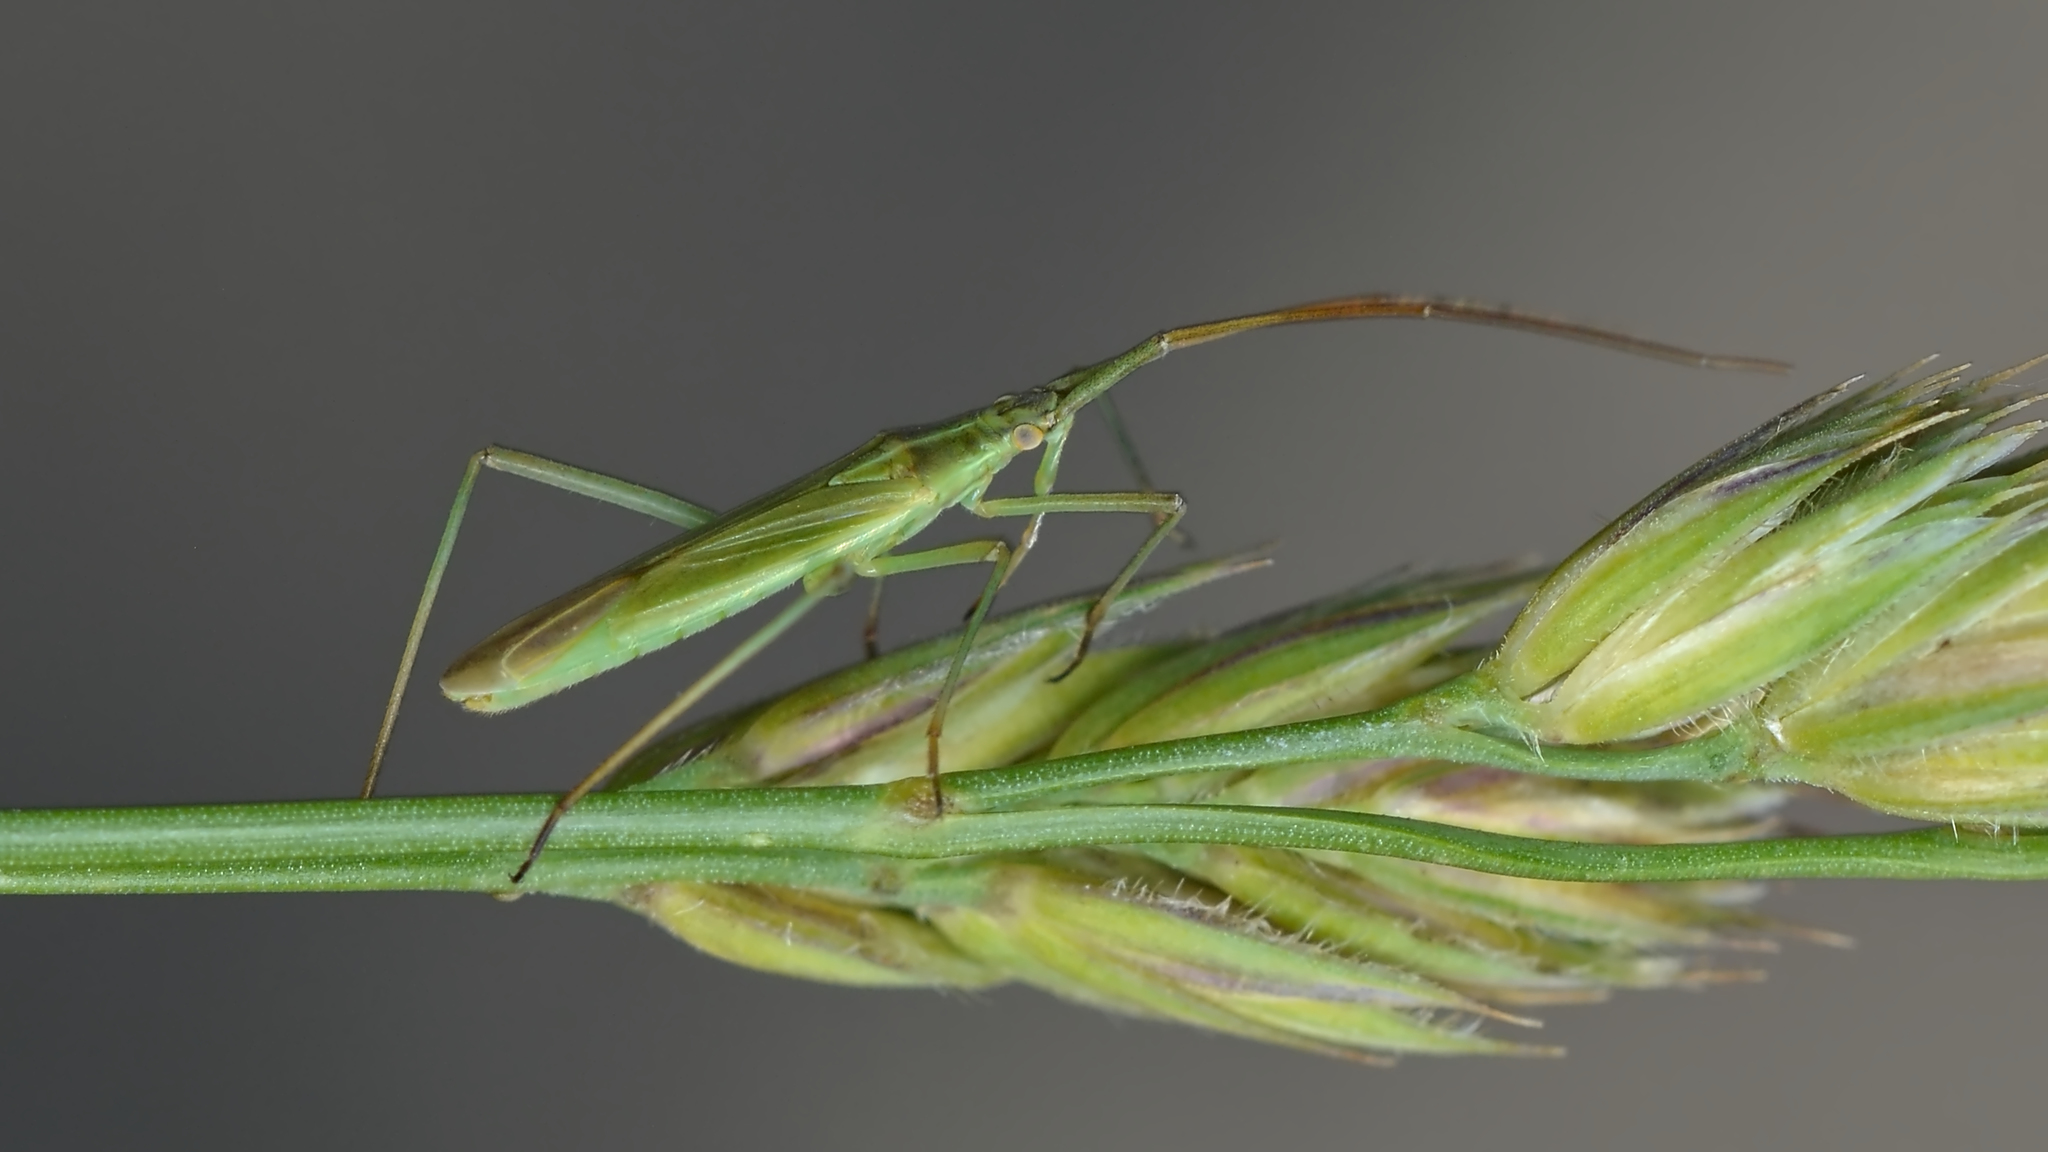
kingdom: Animalia
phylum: Arthropoda
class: Insecta
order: Hemiptera
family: Miridae
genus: Megaloceroea
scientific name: Megaloceroea recticornis
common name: Plant bug
